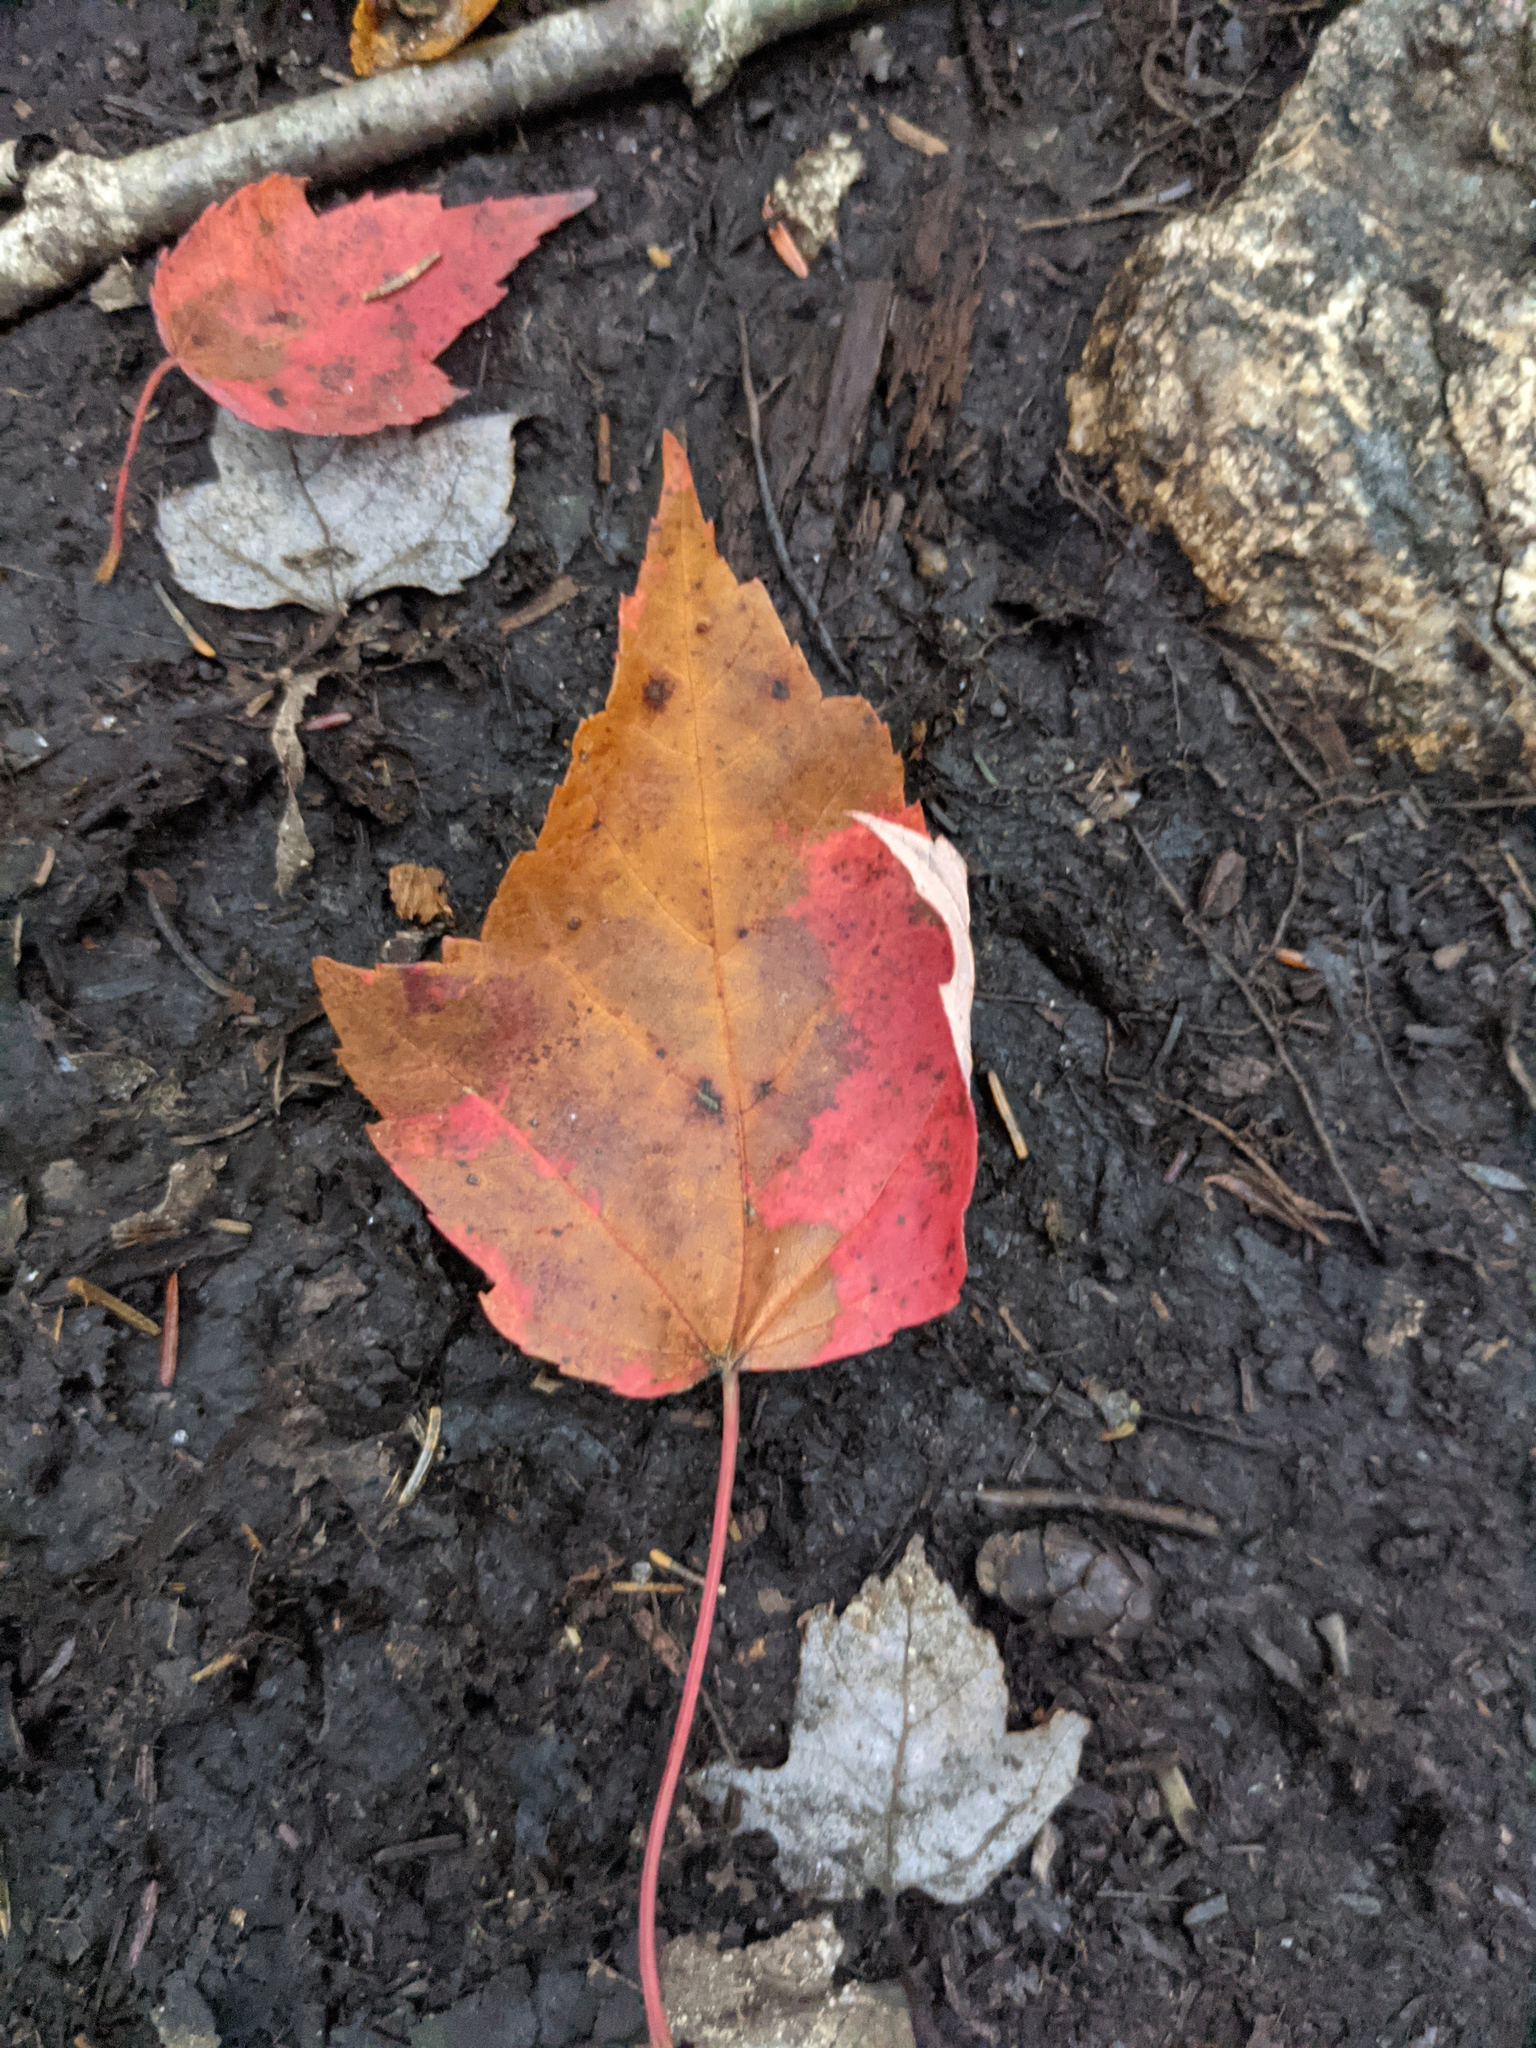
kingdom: Plantae
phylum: Tracheophyta
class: Magnoliopsida
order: Sapindales
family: Sapindaceae
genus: Acer
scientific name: Acer rubrum
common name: Red maple
